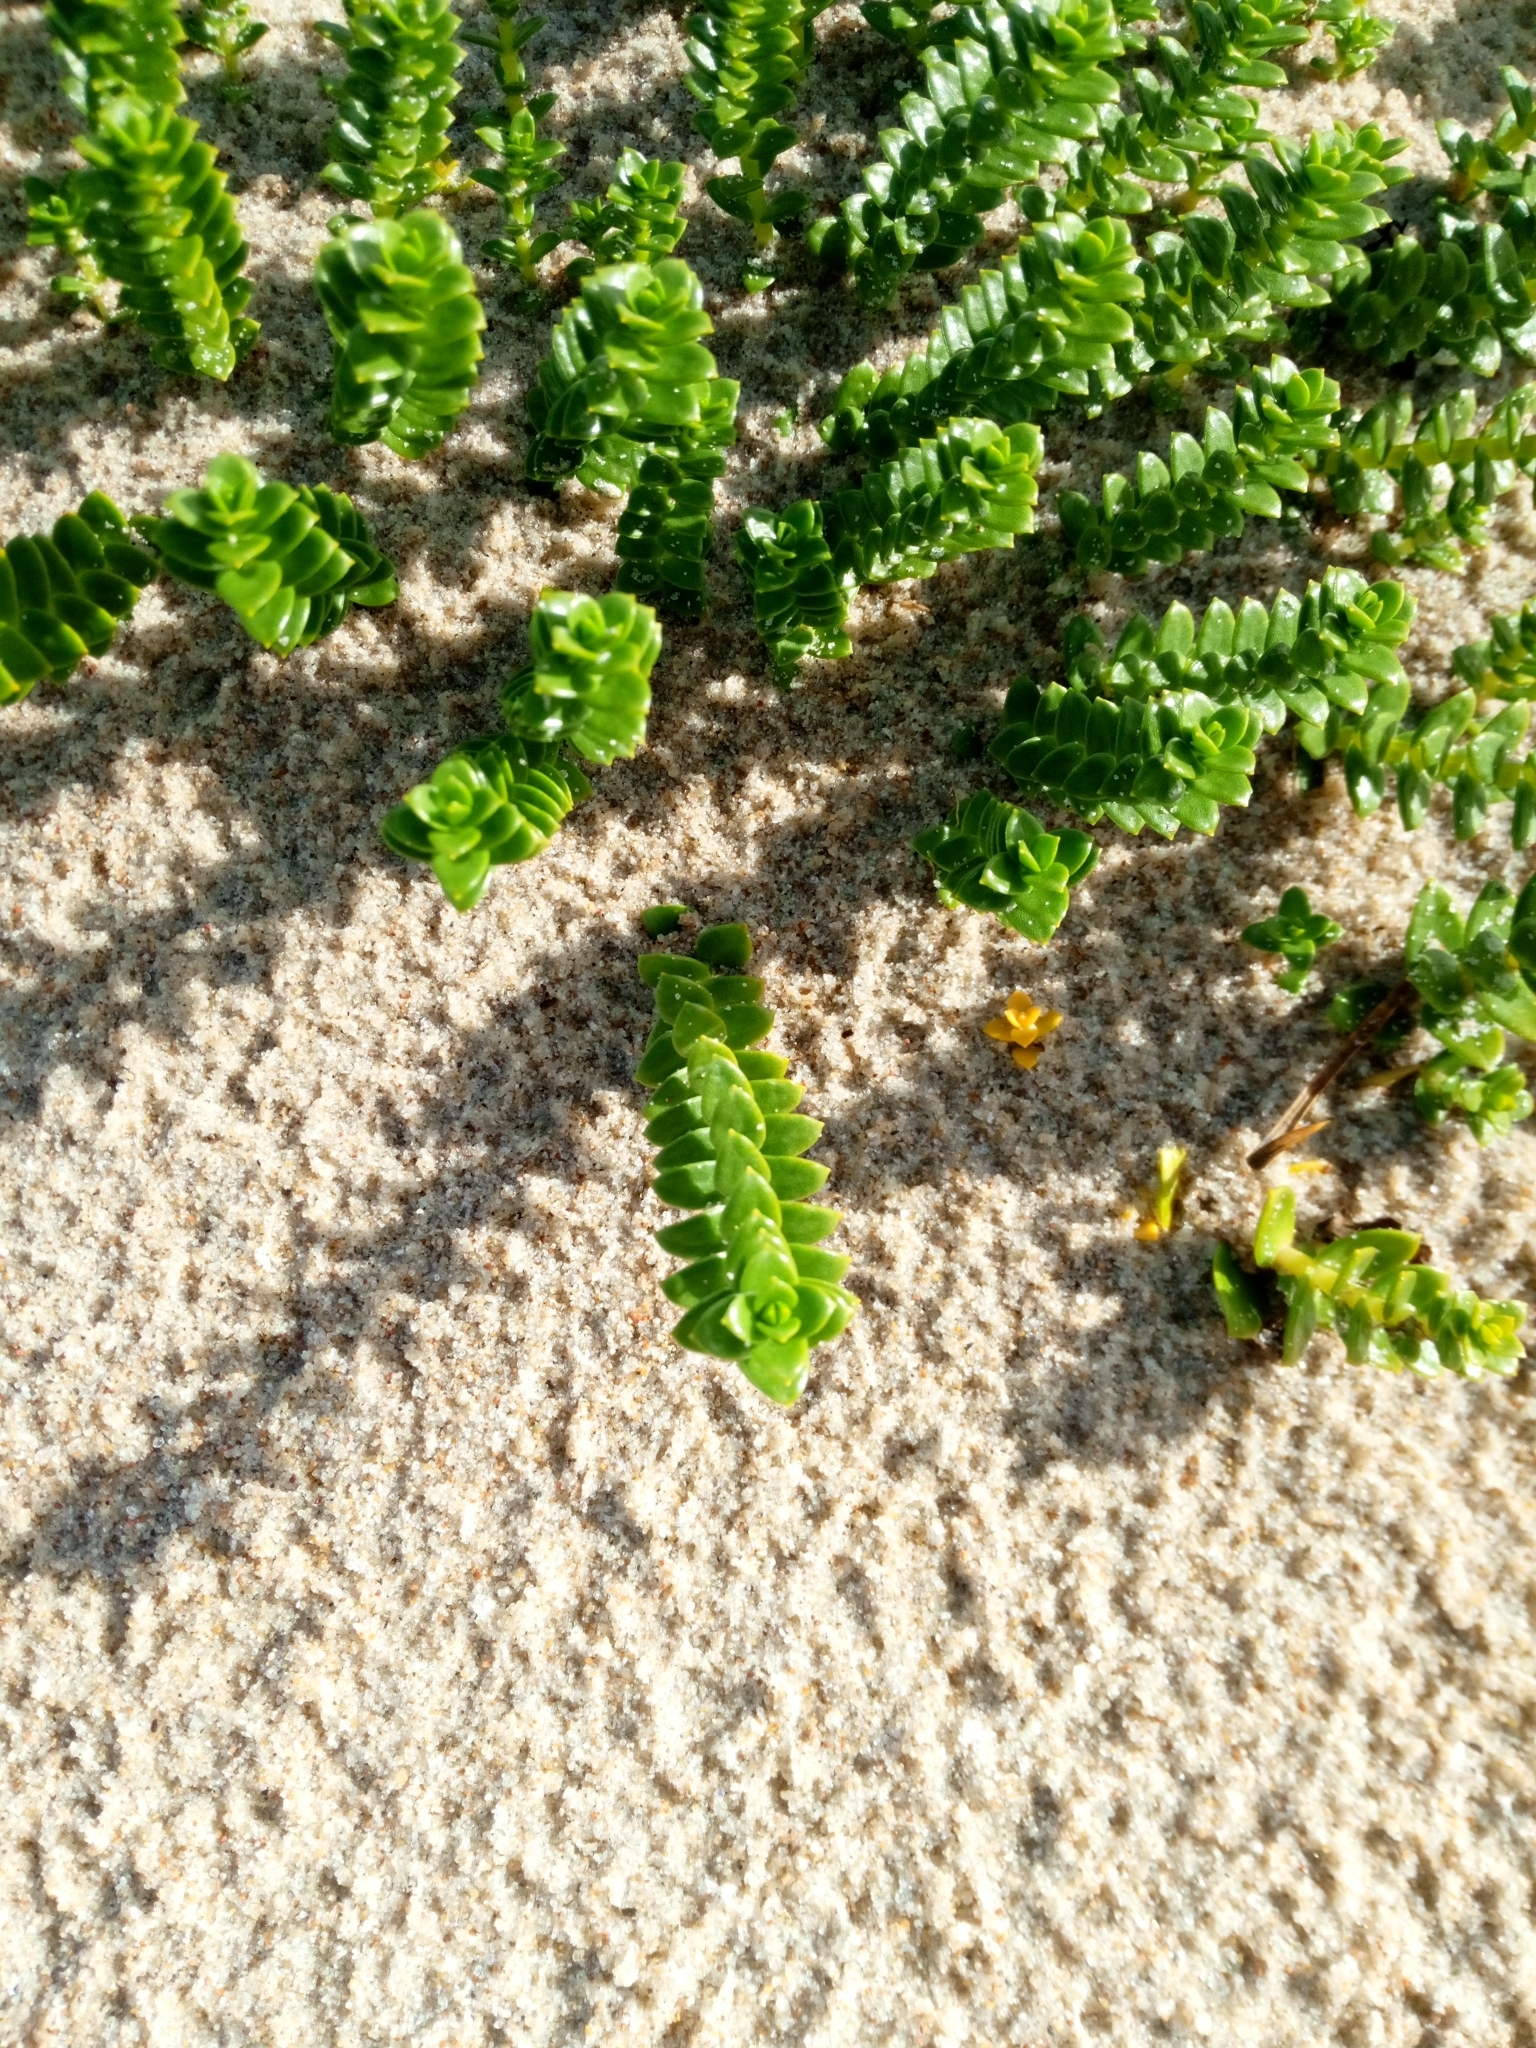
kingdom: Plantae
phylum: Tracheophyta
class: Magnoliopsida
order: Caryophyllales
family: Caryophyllaceae
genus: Honckenya
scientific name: Honckenya peploides
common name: Sea sandwort
